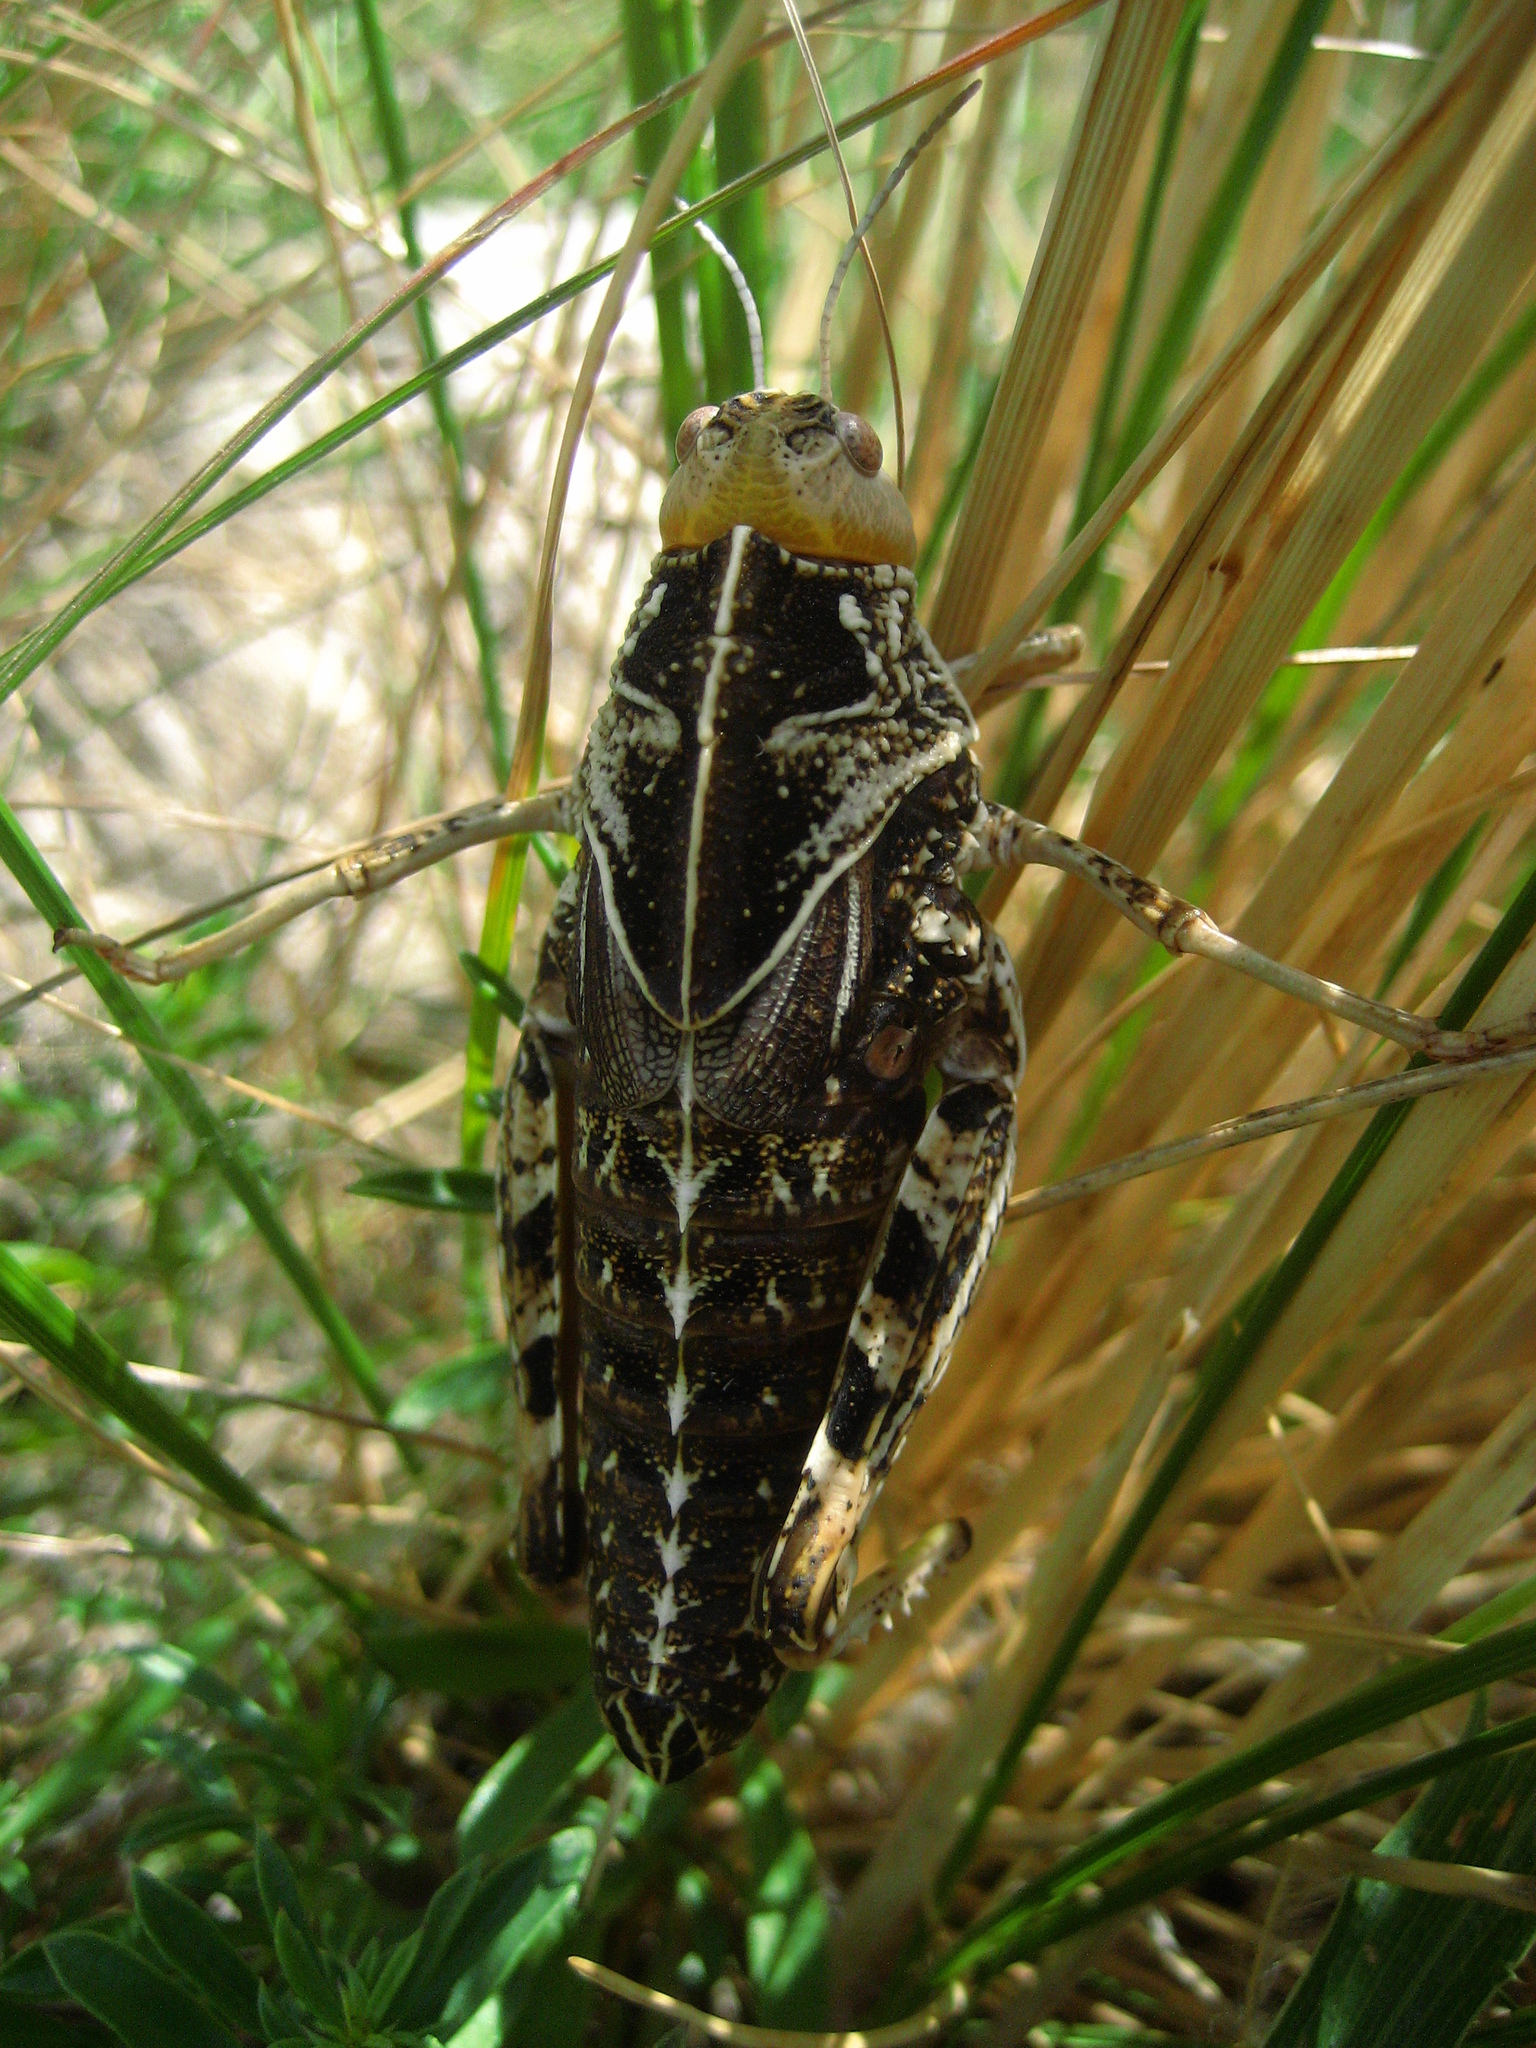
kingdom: Animalia
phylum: Arthropoda
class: Insecta
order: Orthoptera
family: Pamphagidae
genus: Prionotropis
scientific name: Prionotropis hystrix
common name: Eastern stone grasshopper
